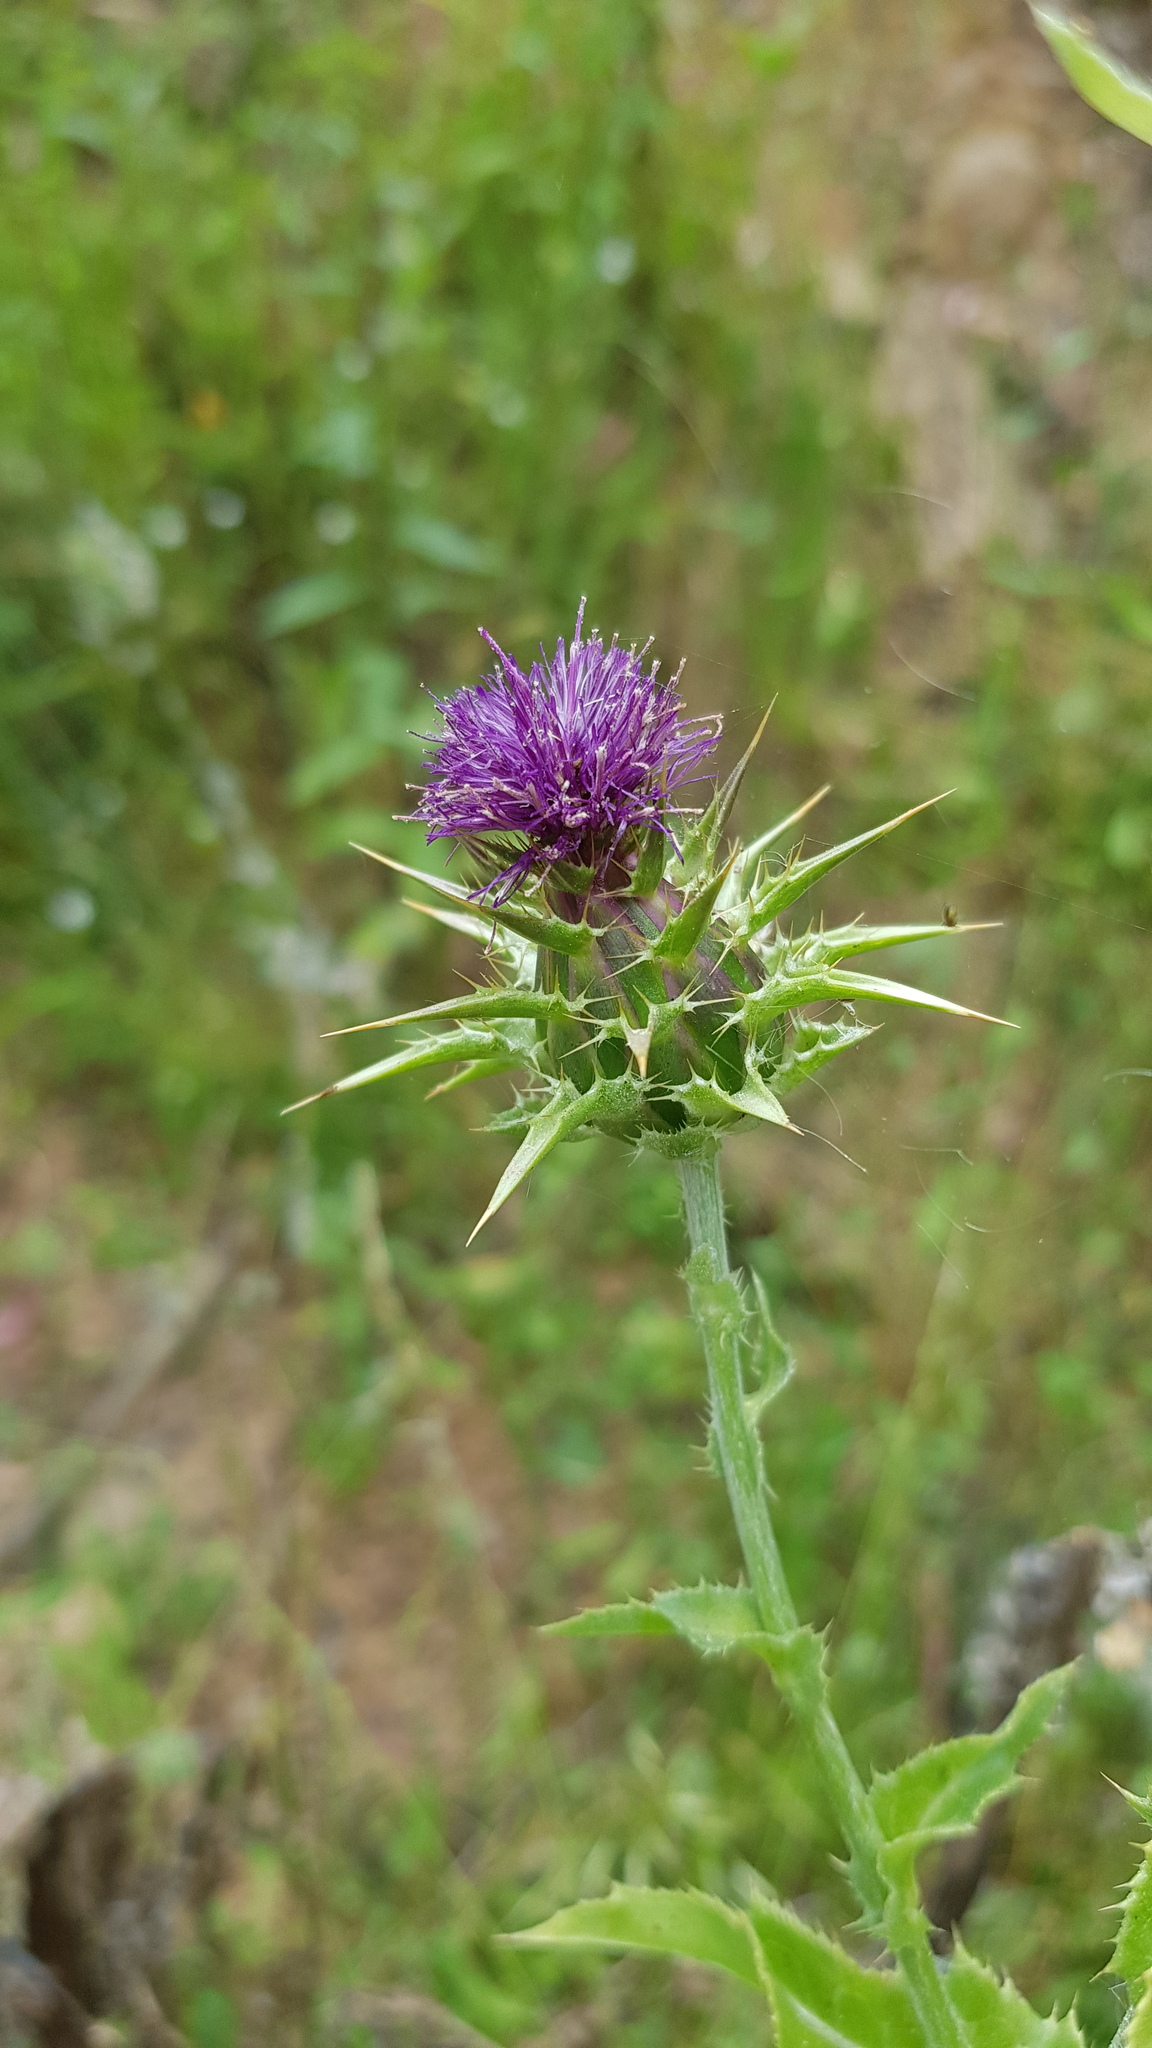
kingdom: Plantae
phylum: Tracheophyta
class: Magnoliopsida
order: Asterales
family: Asteraceae
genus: Silybum
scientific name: Silybum marianum
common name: Milk thistle
